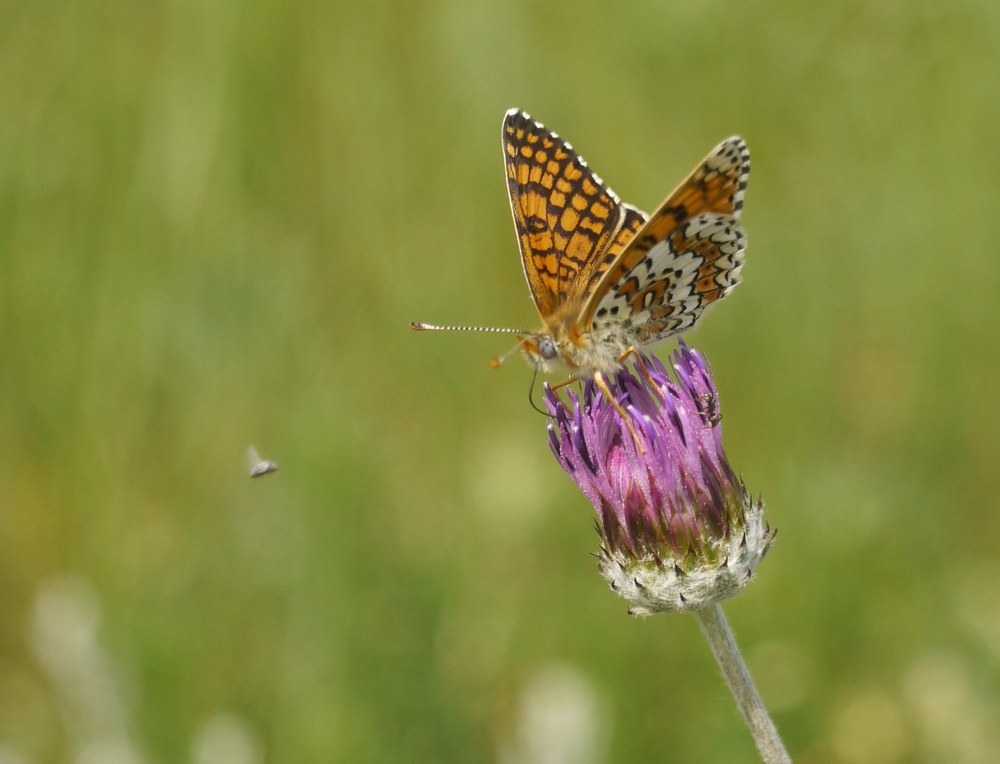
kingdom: Animalia
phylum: Arthropoda
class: Insecta
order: Lepidoptera
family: Nymphalidae
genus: Melitaea
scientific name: Melitaea cinxia
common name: Glanville fritillary
